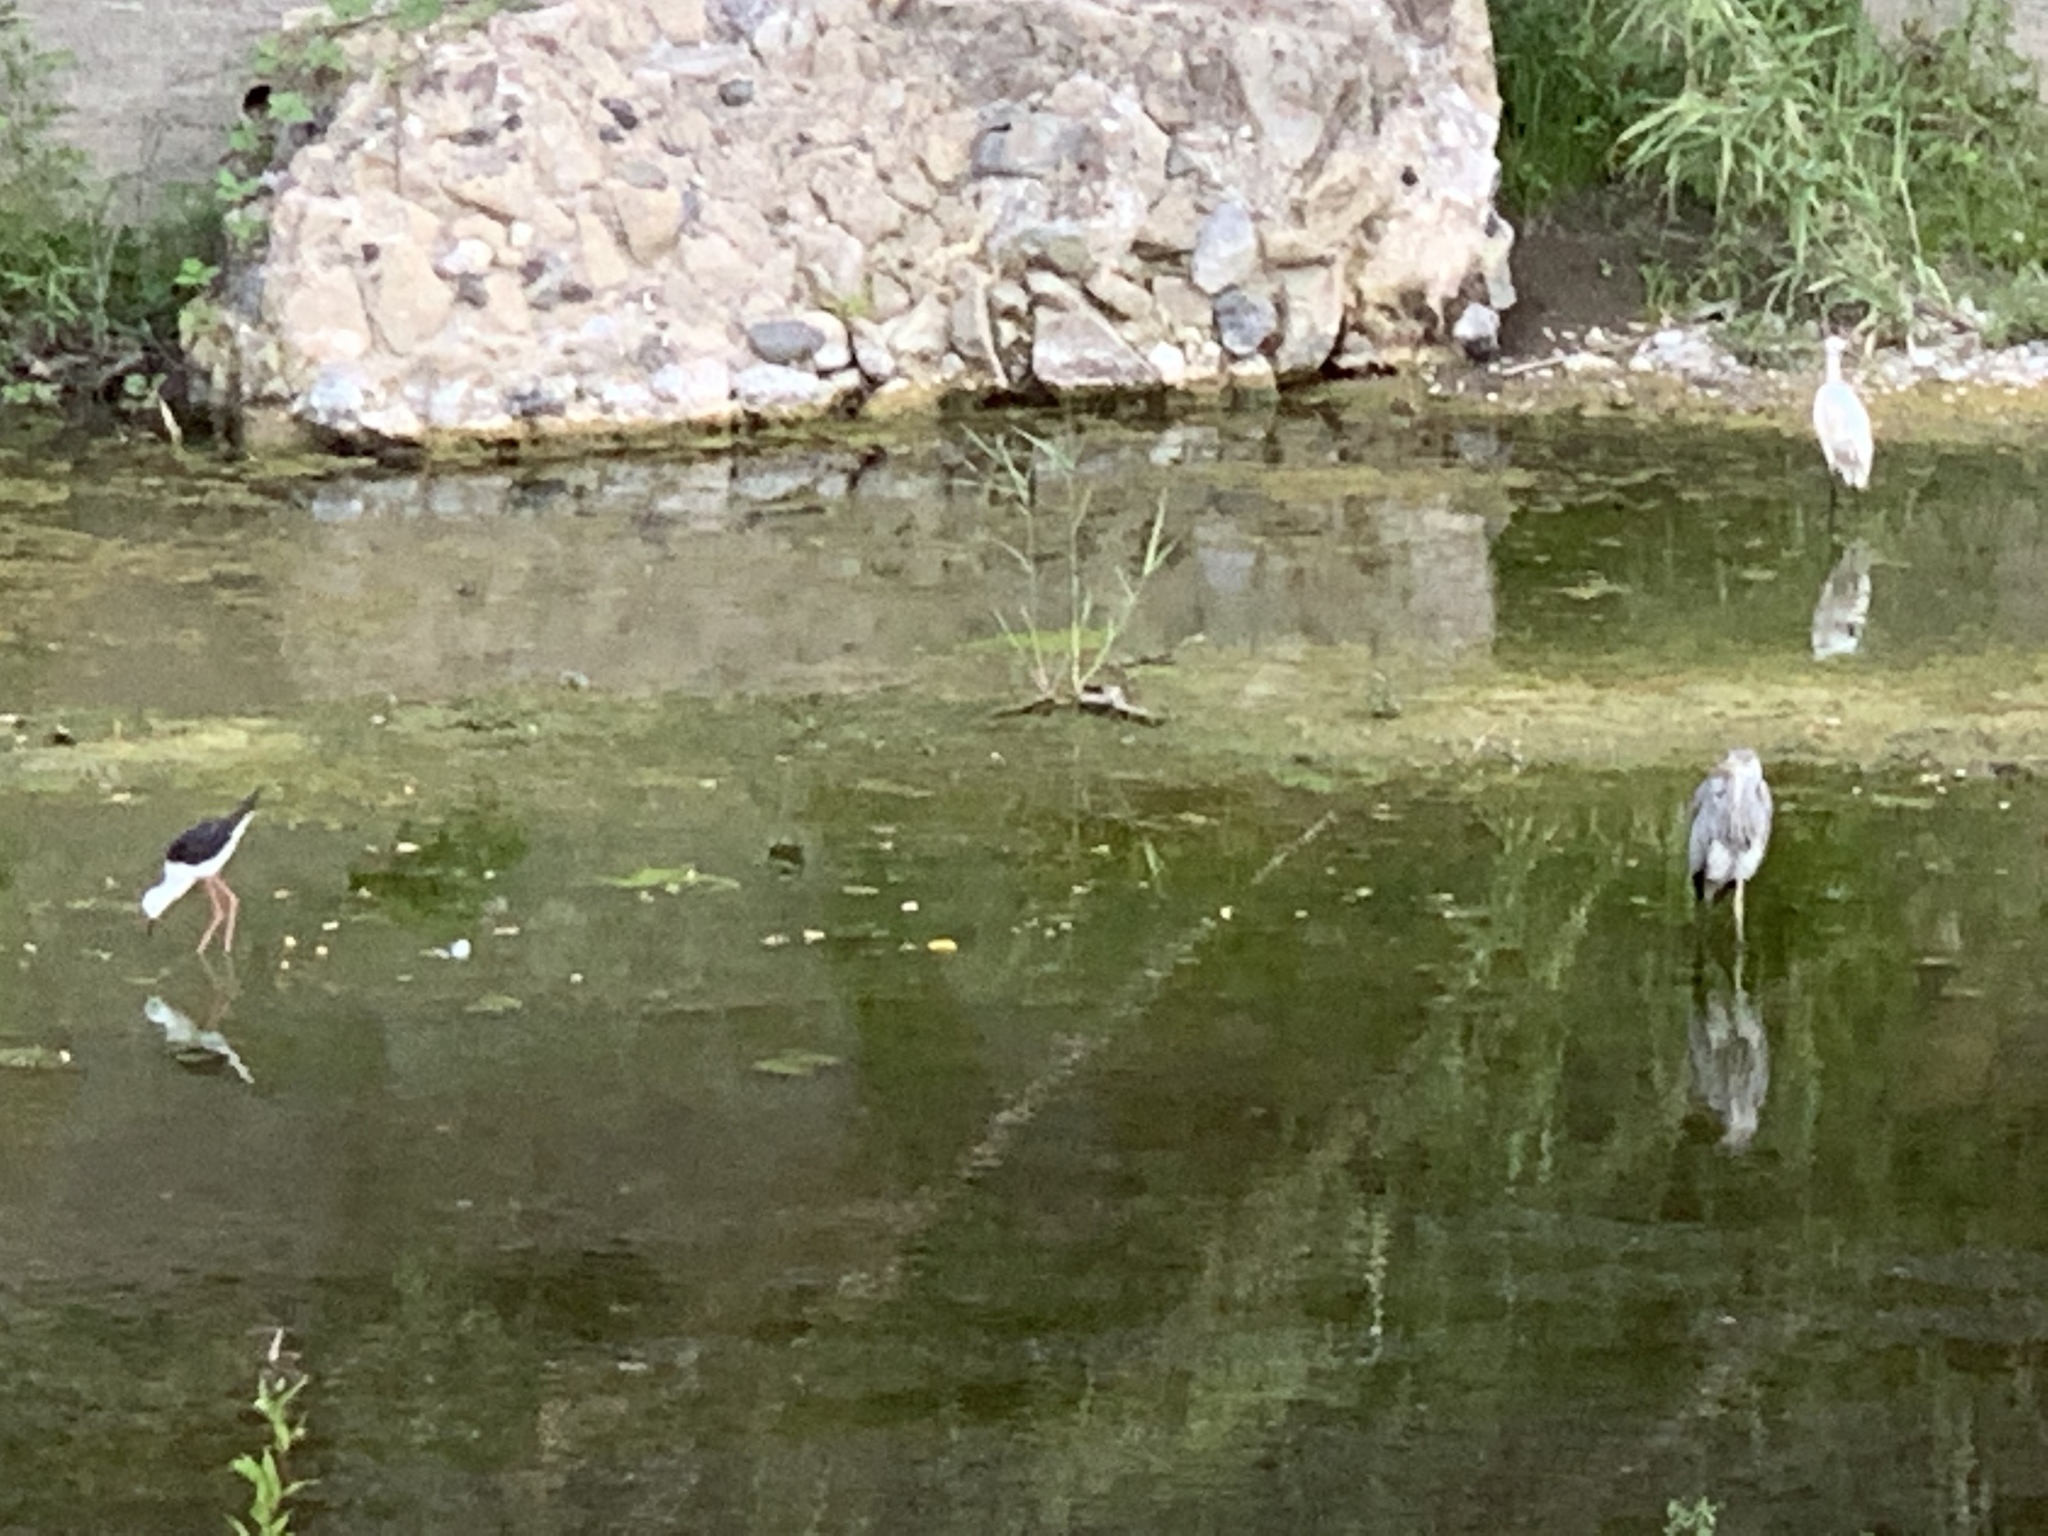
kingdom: Animalia
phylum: Chordata
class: Aves
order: Pelecaniformes
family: Ardeidae
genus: Egretta
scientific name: Egretta garzetta
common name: Little egret
